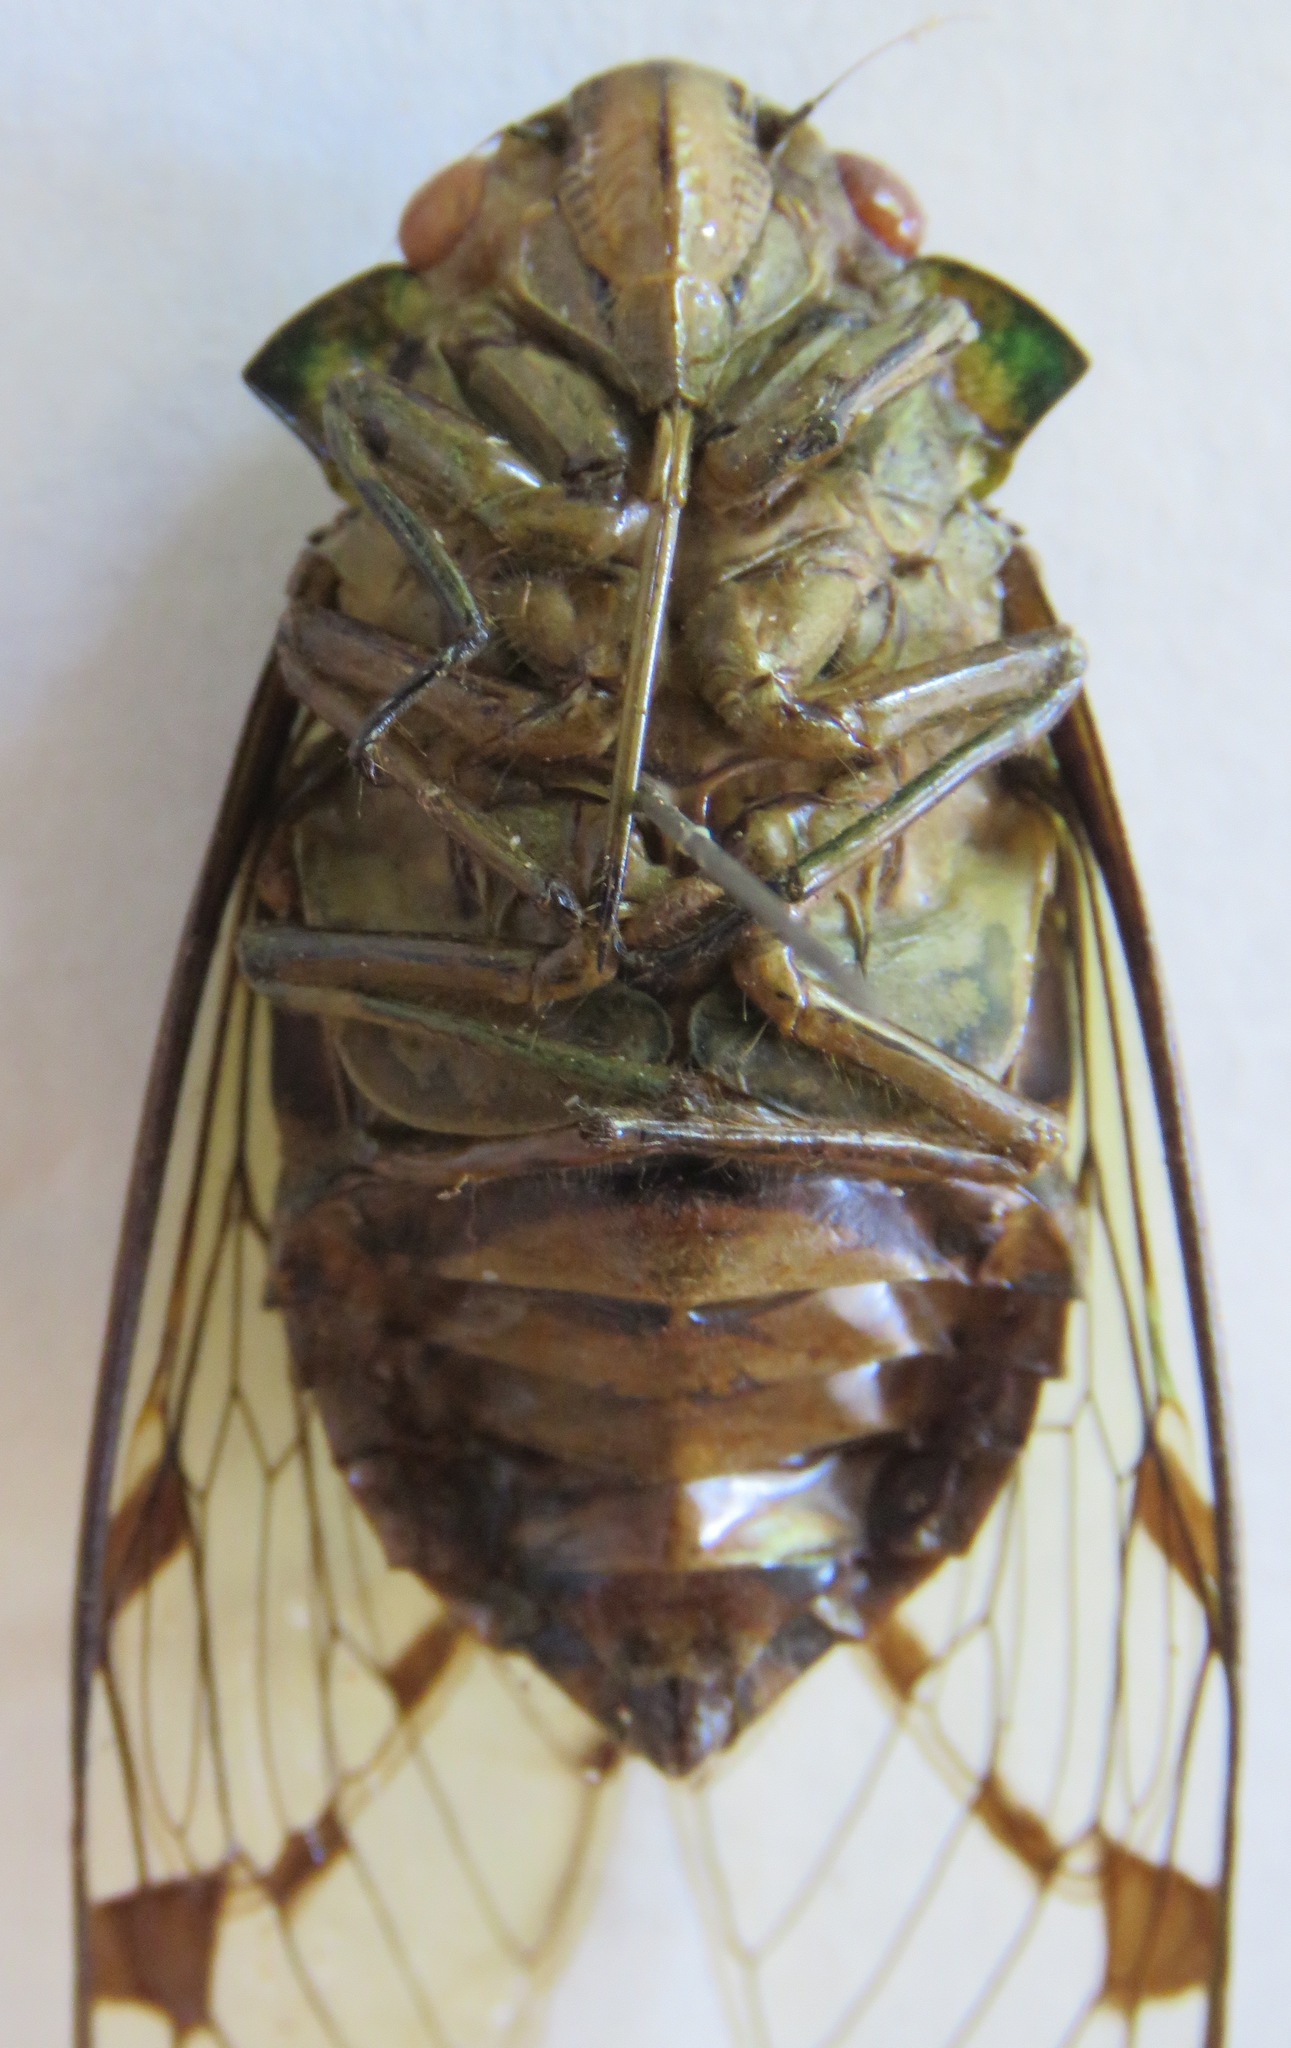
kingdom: Animalia
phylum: Arthropoda
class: Insecta
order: Hemiptera
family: Cicadidae
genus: Zammara
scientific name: Zammara smaragdina
